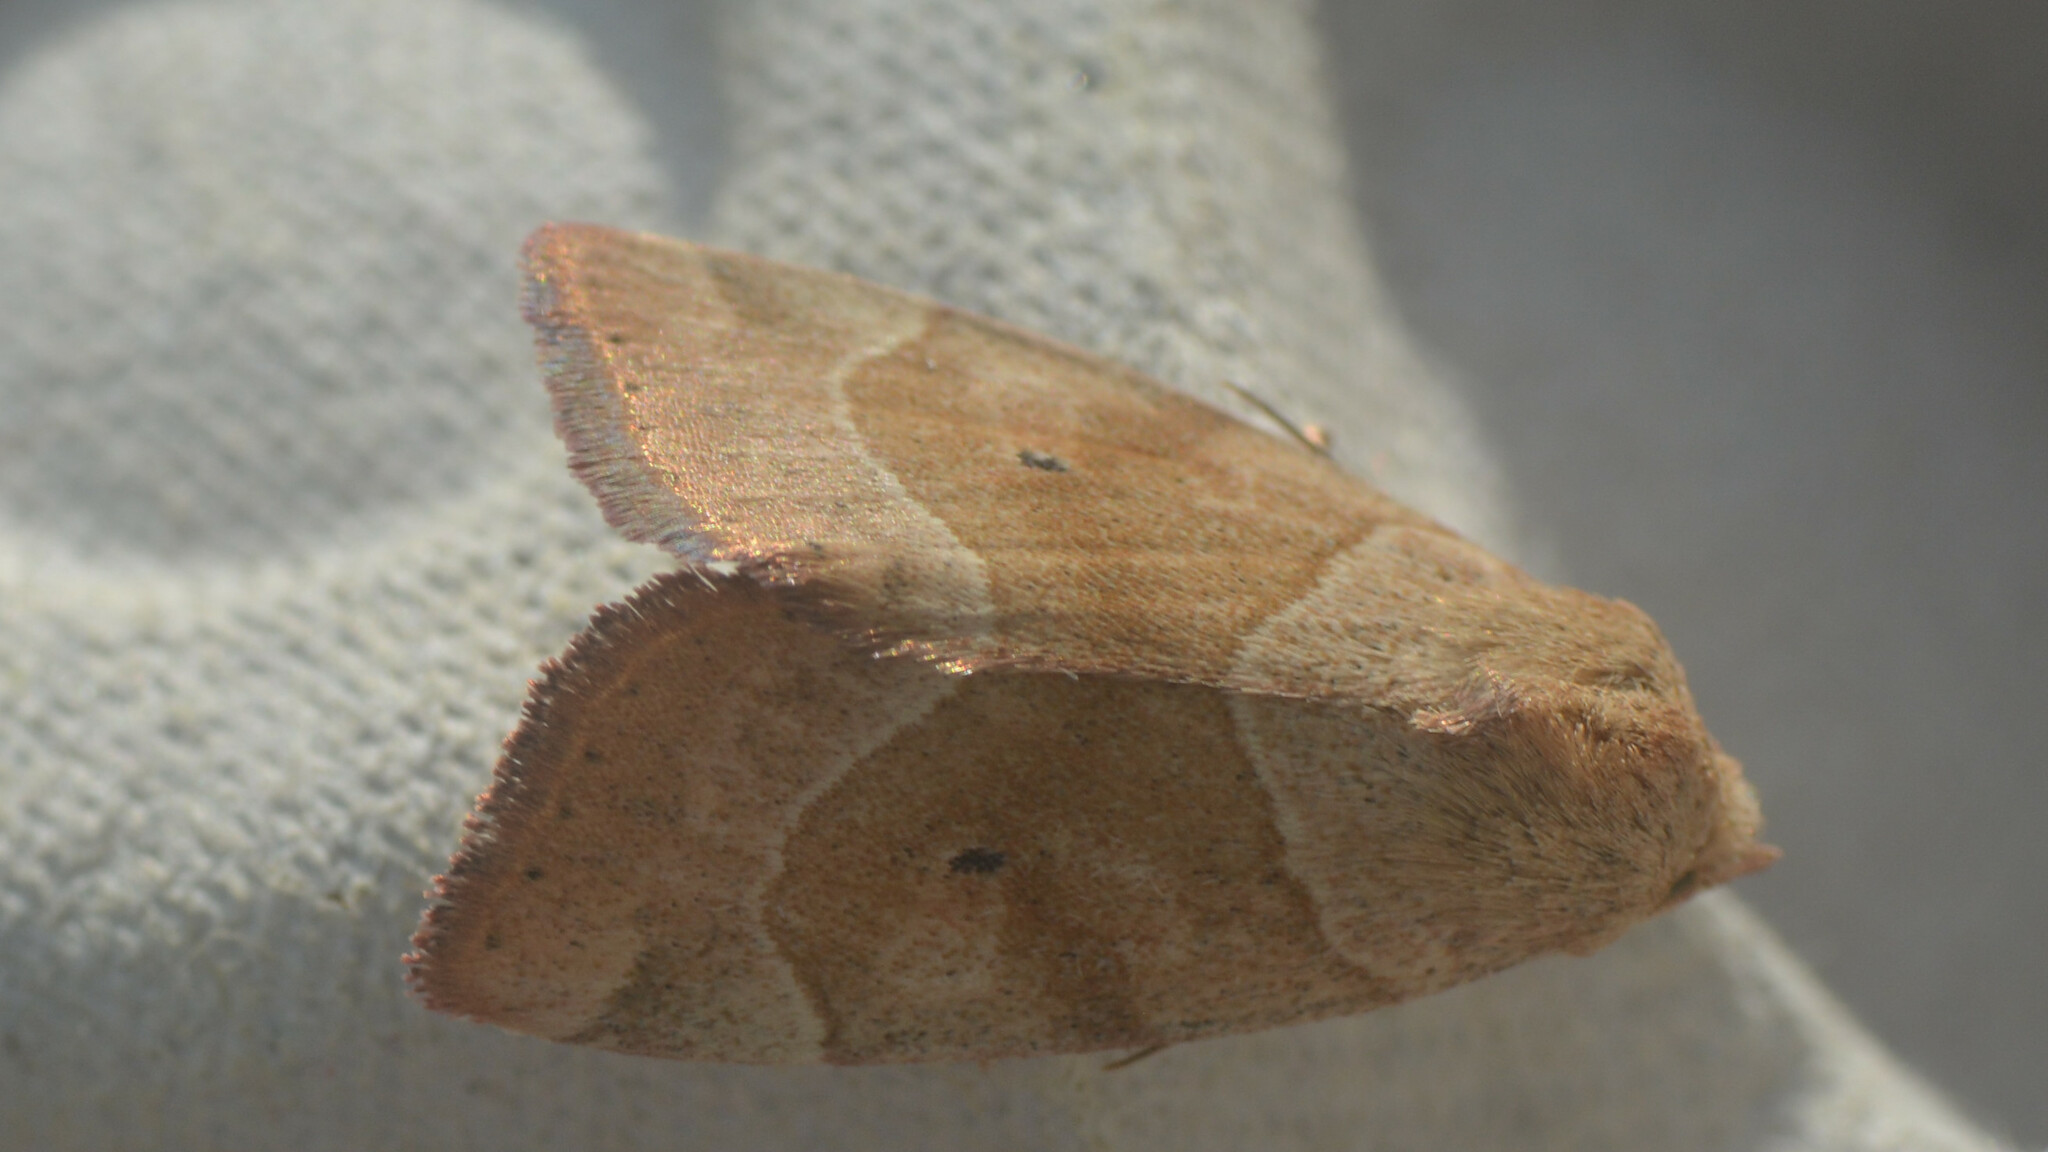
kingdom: Animalia
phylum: Arthropoda
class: Insecta
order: Lepidoptera
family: Noctuidae
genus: Cosmia
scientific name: Cosmia trapezina
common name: Dun-bar
